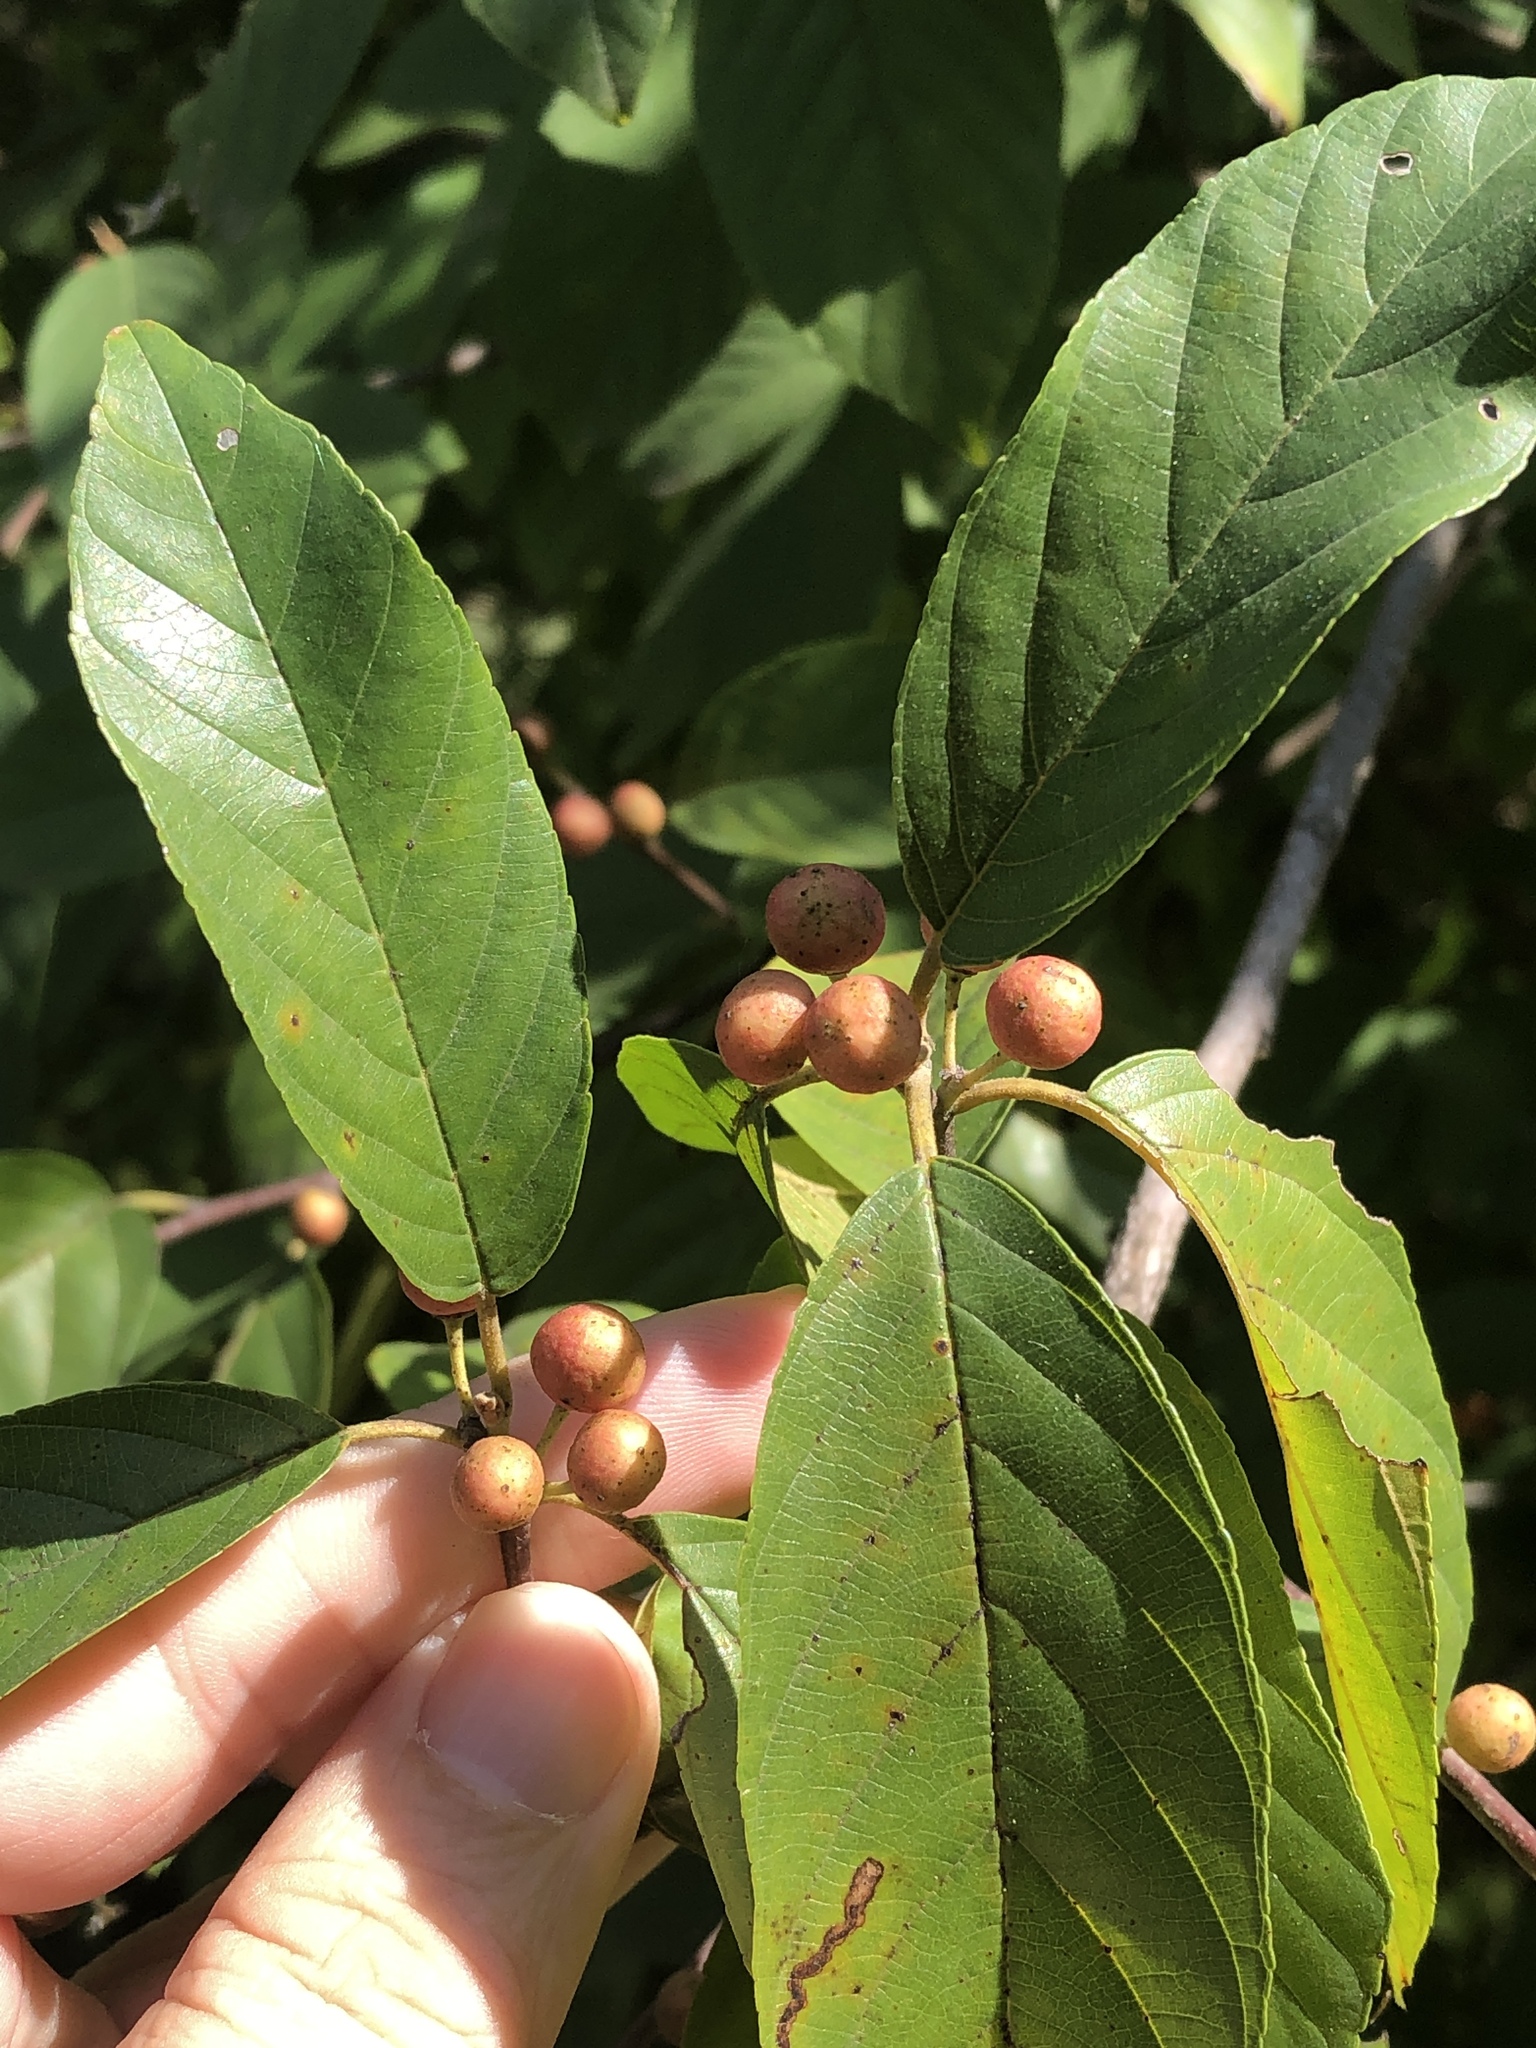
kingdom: Plantae
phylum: Tracheophyta
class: Magnoliopsida
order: Rosales
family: Rhamnaceae
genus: Frangula
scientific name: Frangula caroliniana
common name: Carolina buckthorn
